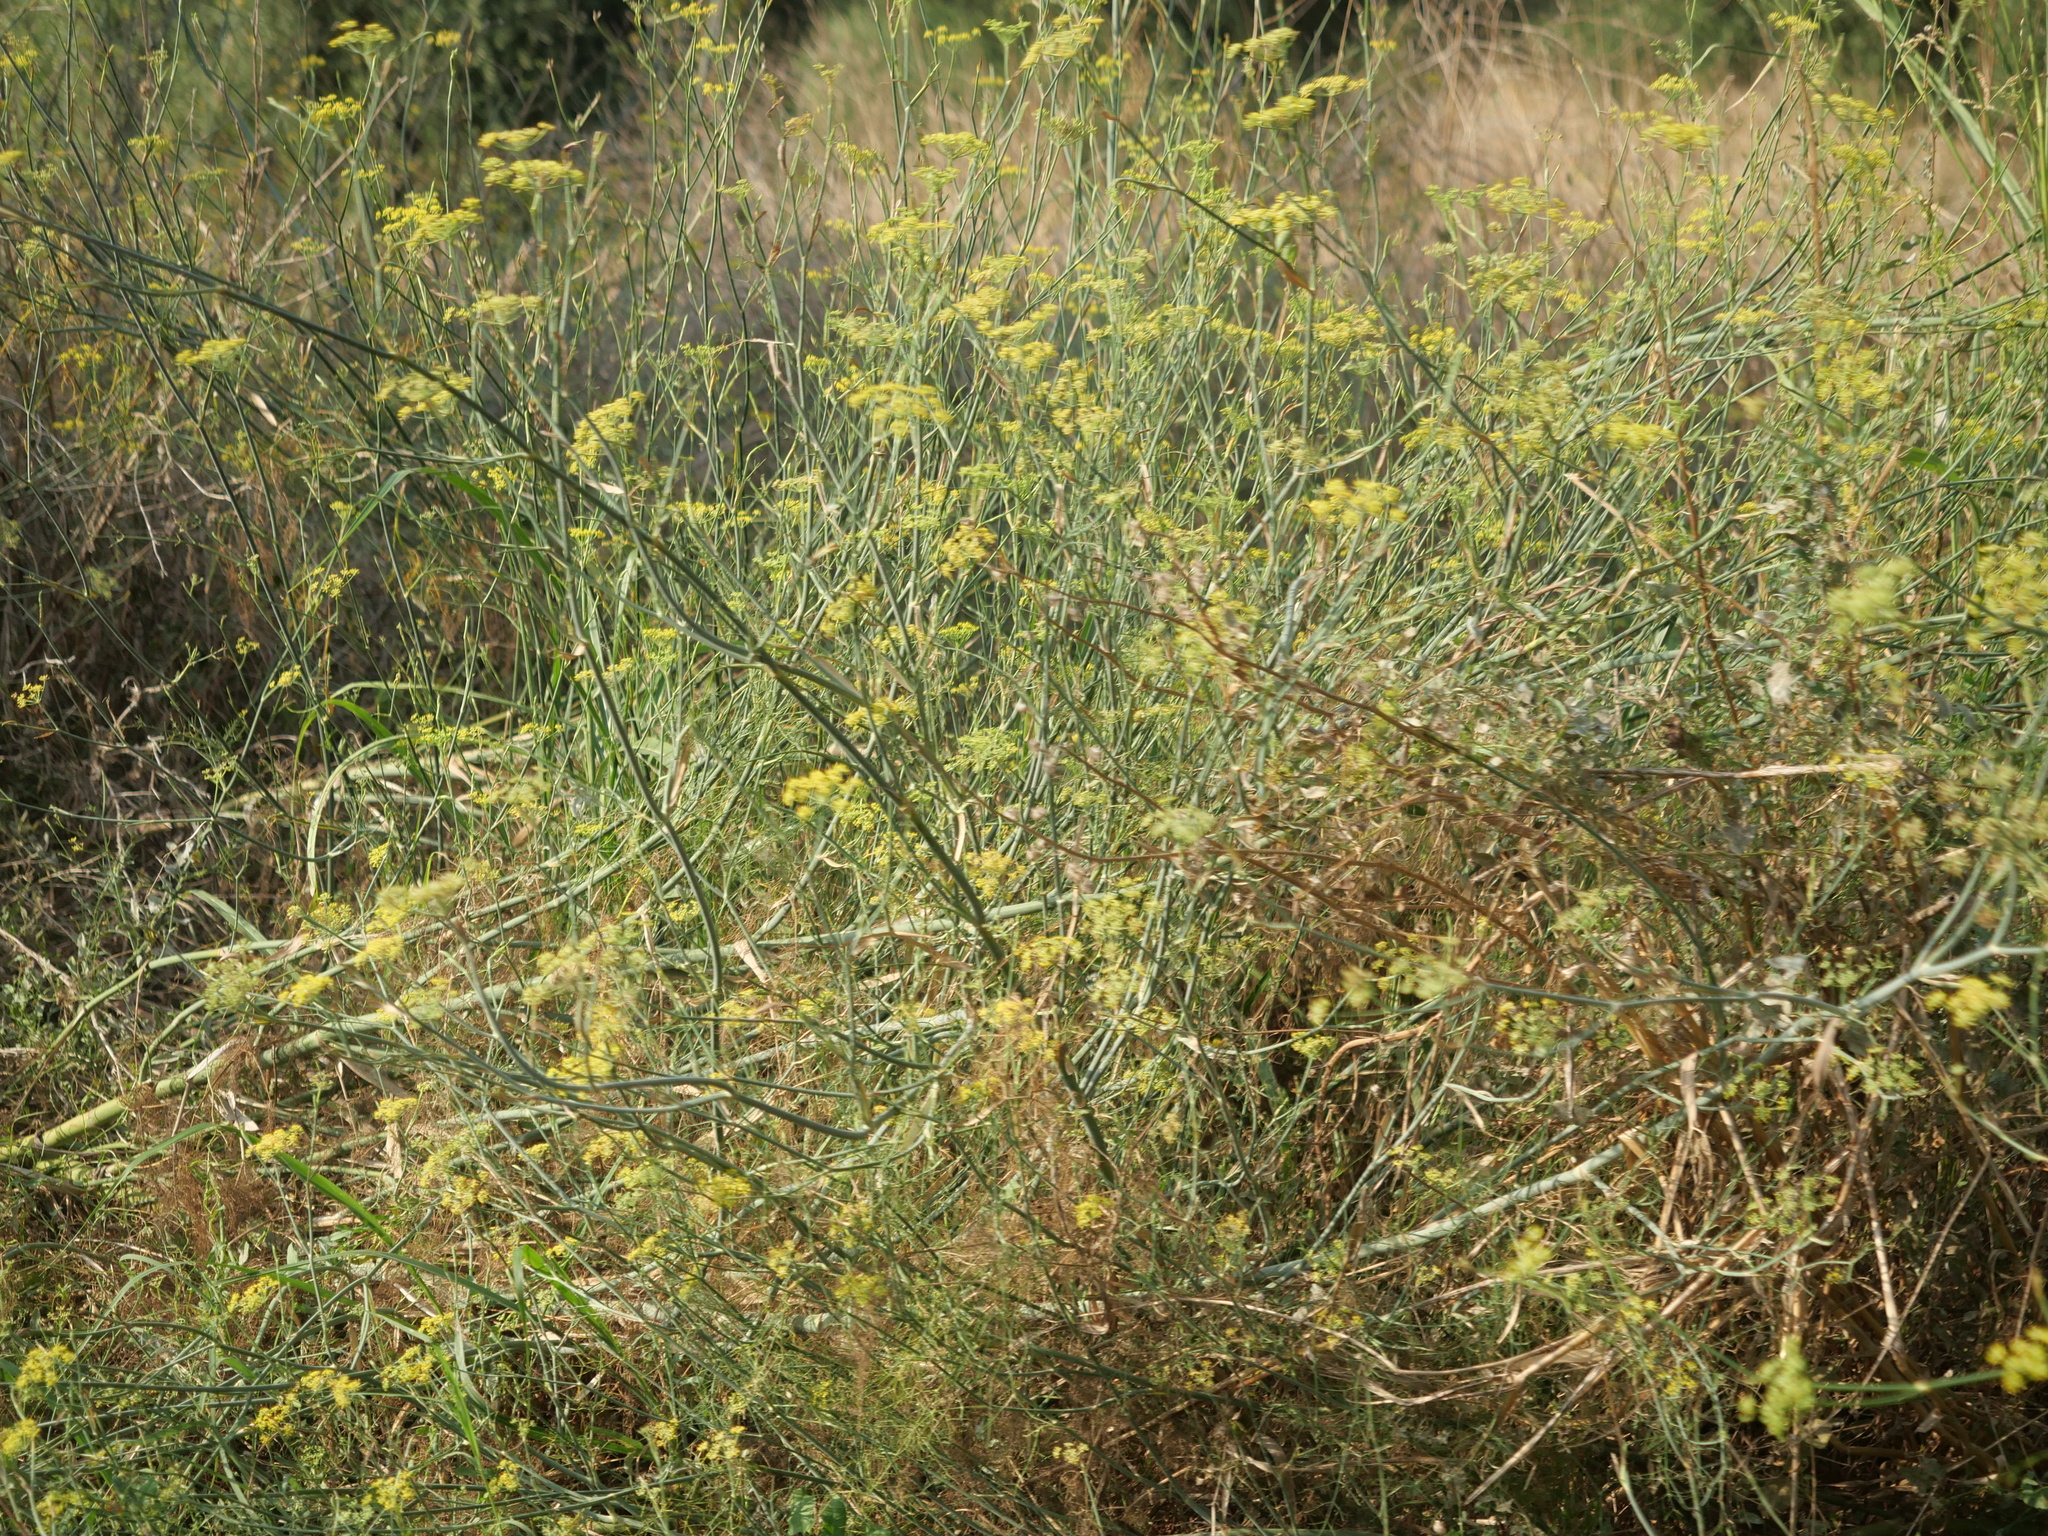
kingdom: Plantae
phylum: Tracheophyta
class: Magnoliopsida
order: Apiales
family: Apiaceae
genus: Foeniculum
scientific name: Foeniculum vulgare
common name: Fennel
